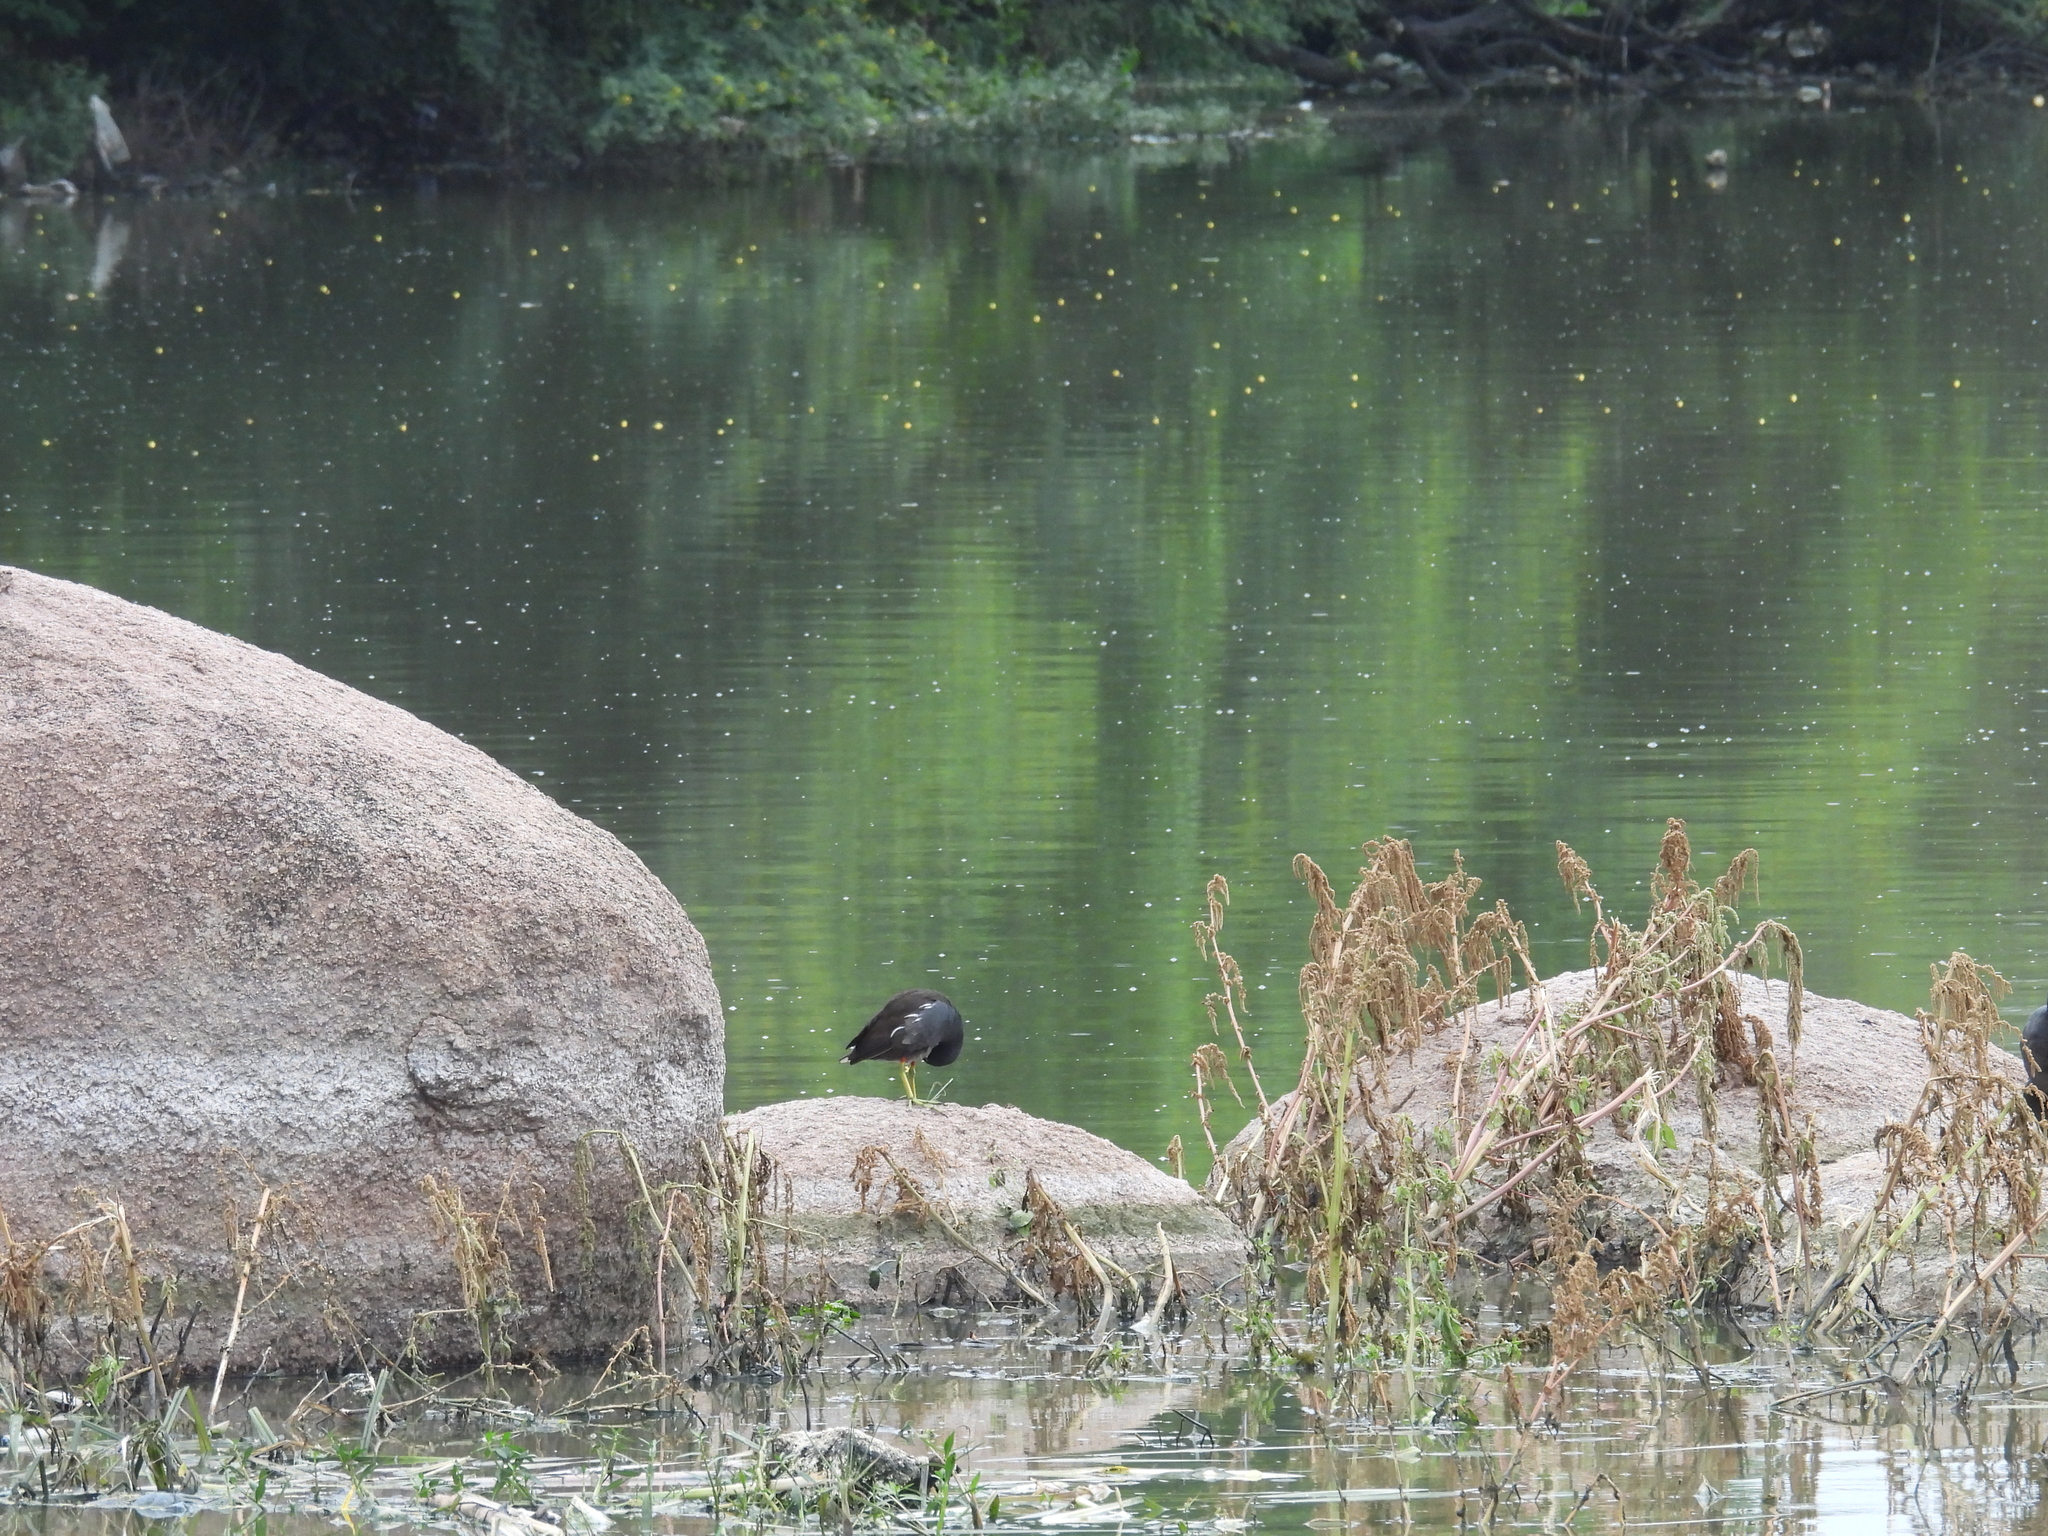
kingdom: Animalia
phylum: Chordata
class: Aves
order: Gruiformes
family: Rallidae
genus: Gallinula
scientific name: Gallinula chloropus
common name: Common moorhen
